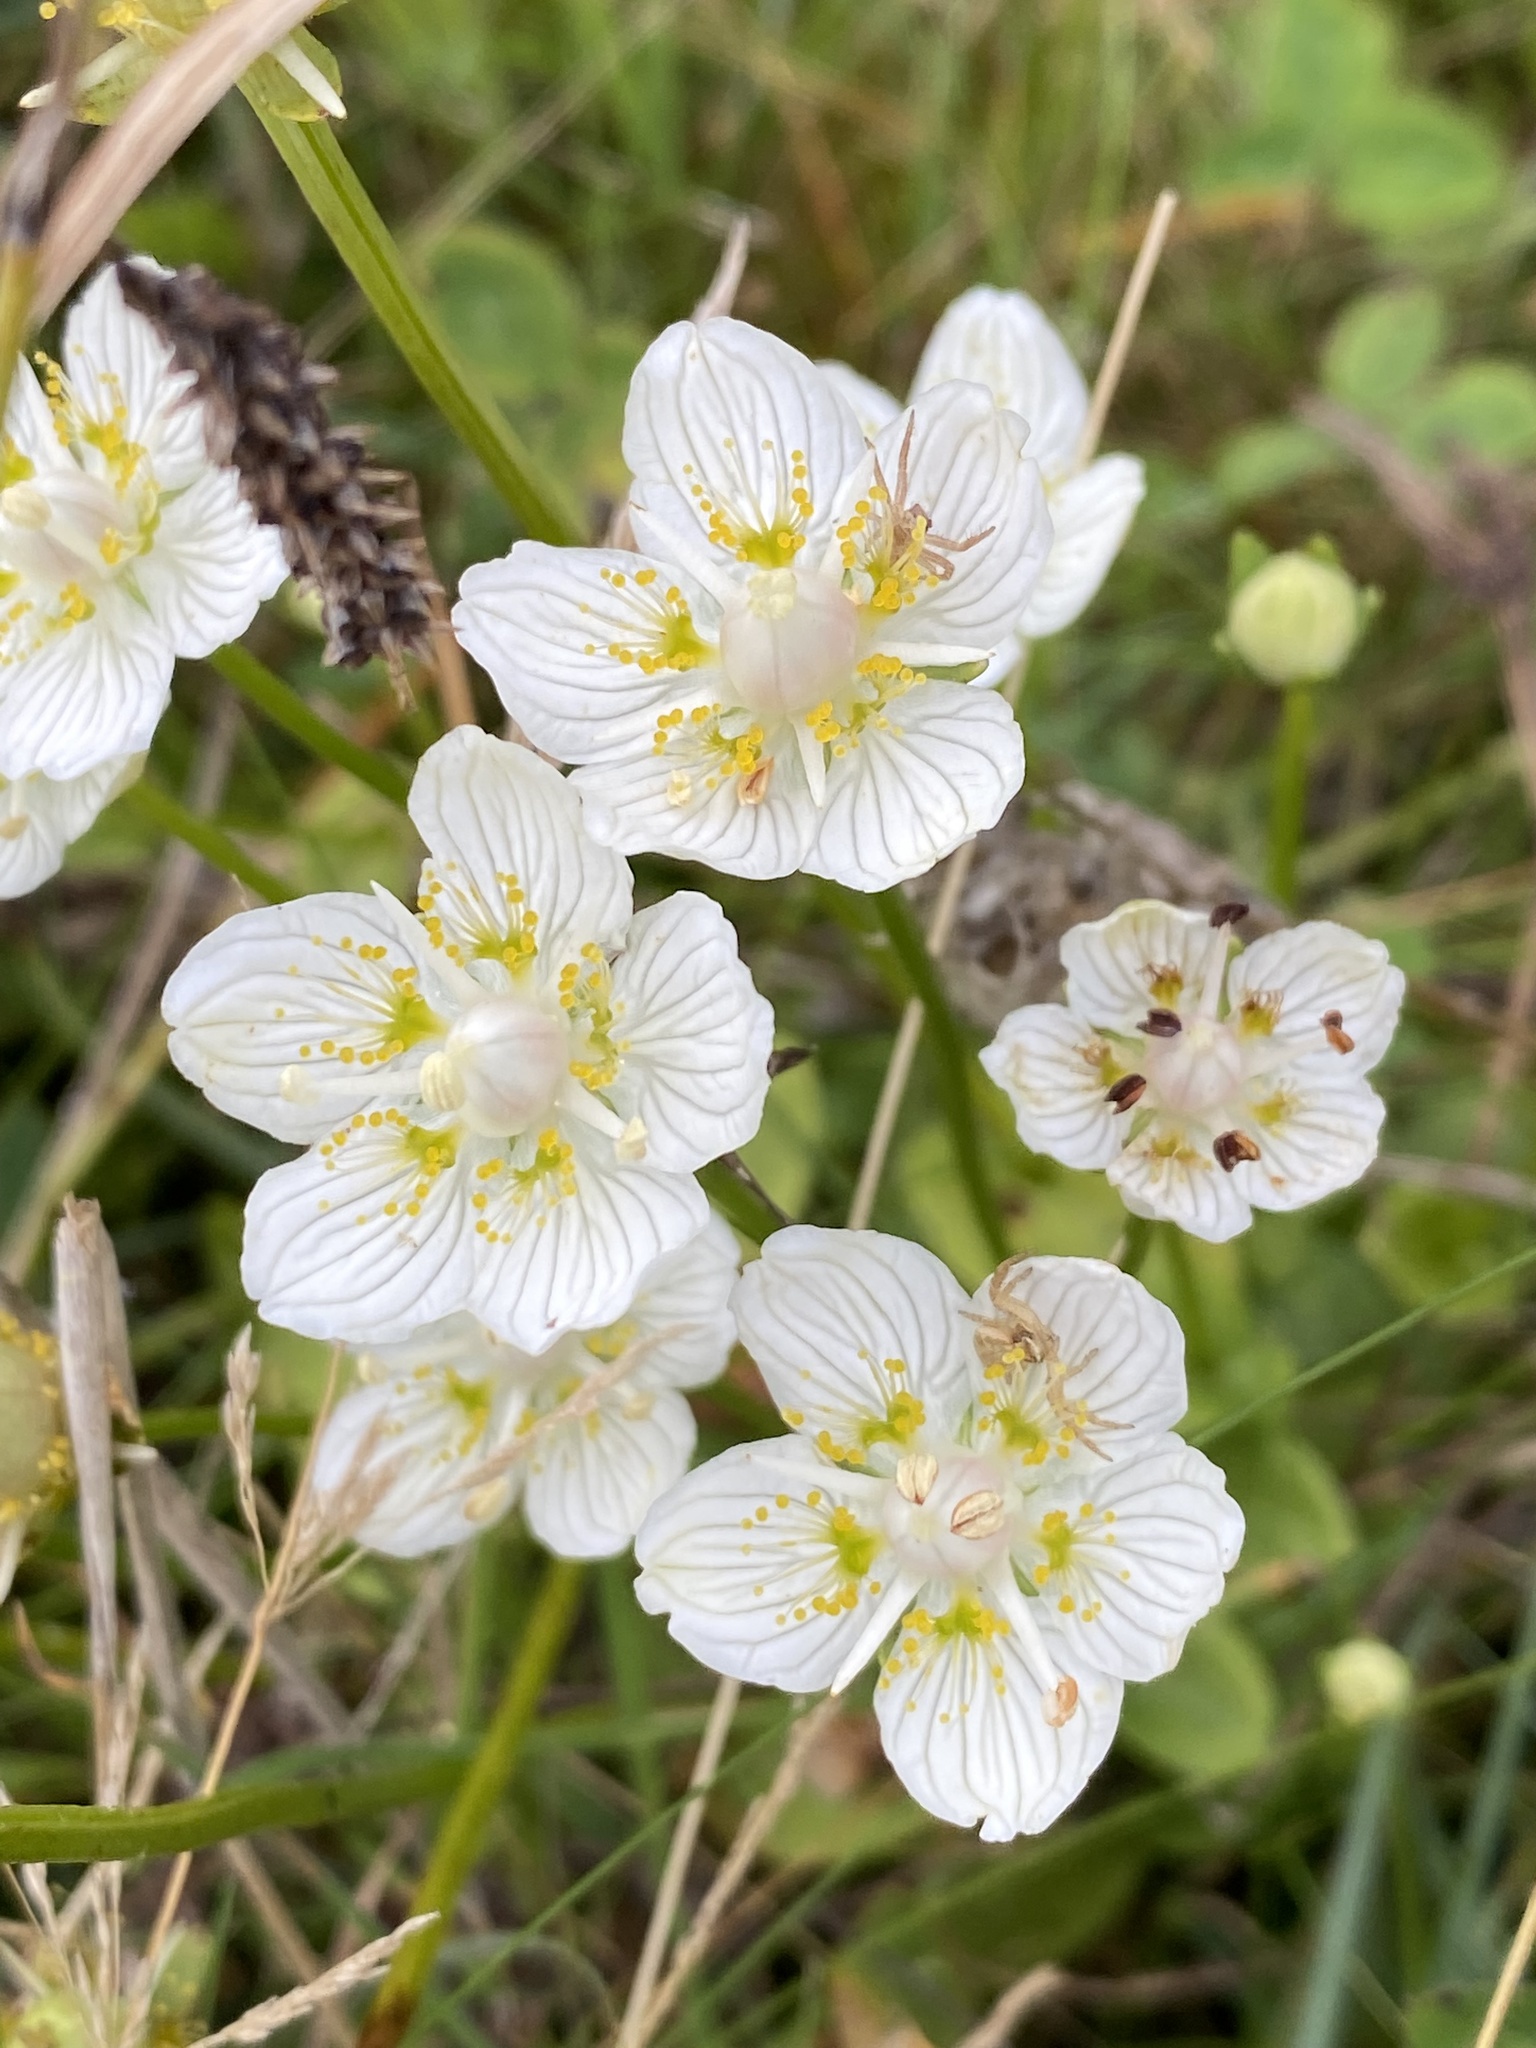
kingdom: Plantae
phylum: Tracheophyta
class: Magnoliopsida
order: Celastrales
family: Parnassiaceae
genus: Parnassia
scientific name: Parnassia palustris
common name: Grass-of-parnassus
